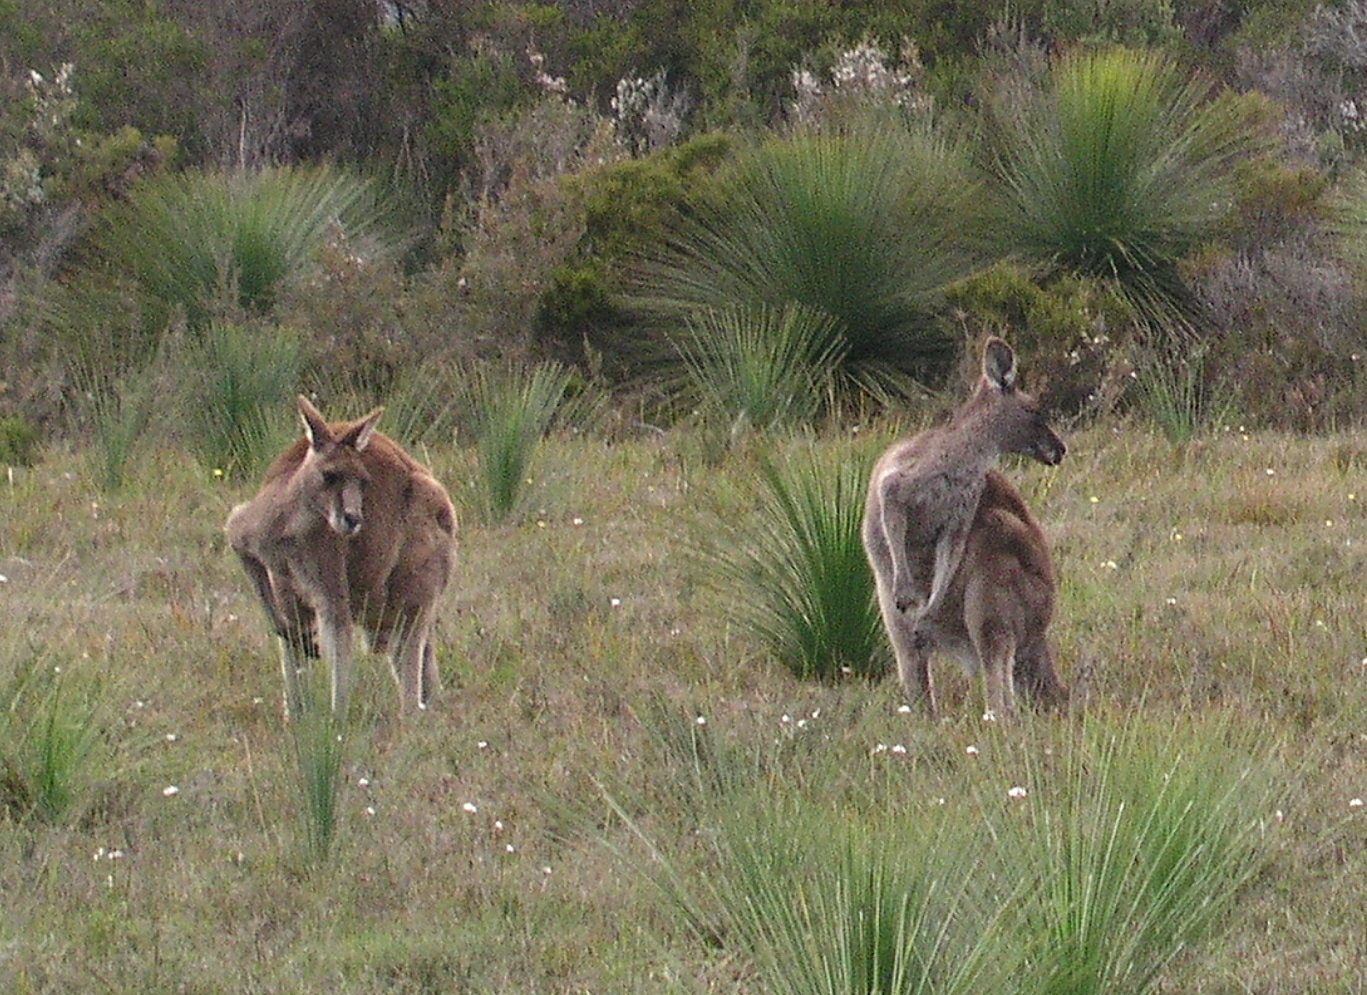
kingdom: Animalia
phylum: Chordata
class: Mammalia
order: Diprotodontia
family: Macropodidae
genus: Macropus
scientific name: Macropus giganteus
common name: Eastern grey kangaroo
